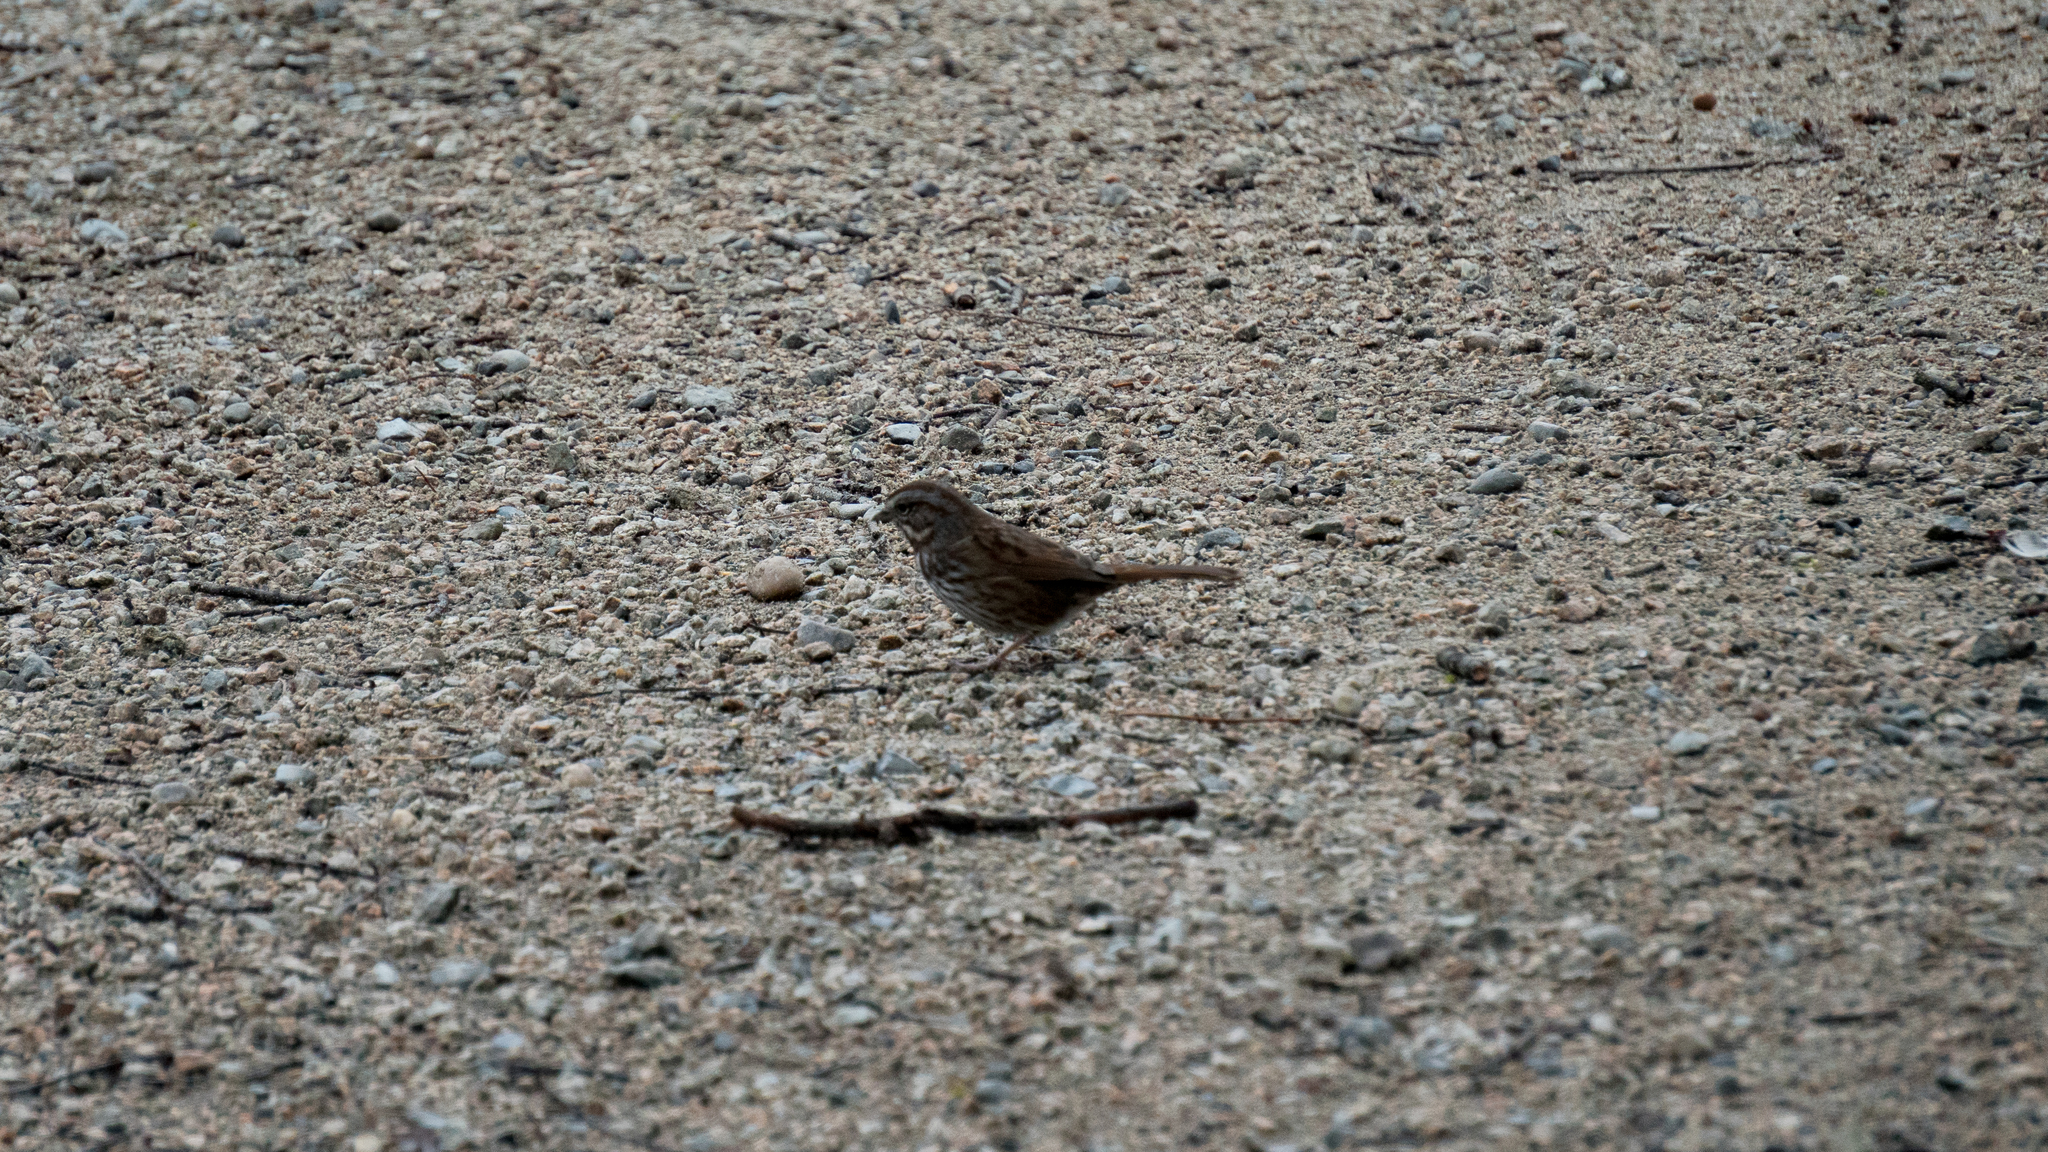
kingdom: Animalia
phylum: Chordata
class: Aves
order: Passeriformes
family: Passerellidae
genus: Melospiza
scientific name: Melospiza melodia
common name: Song sparrow
